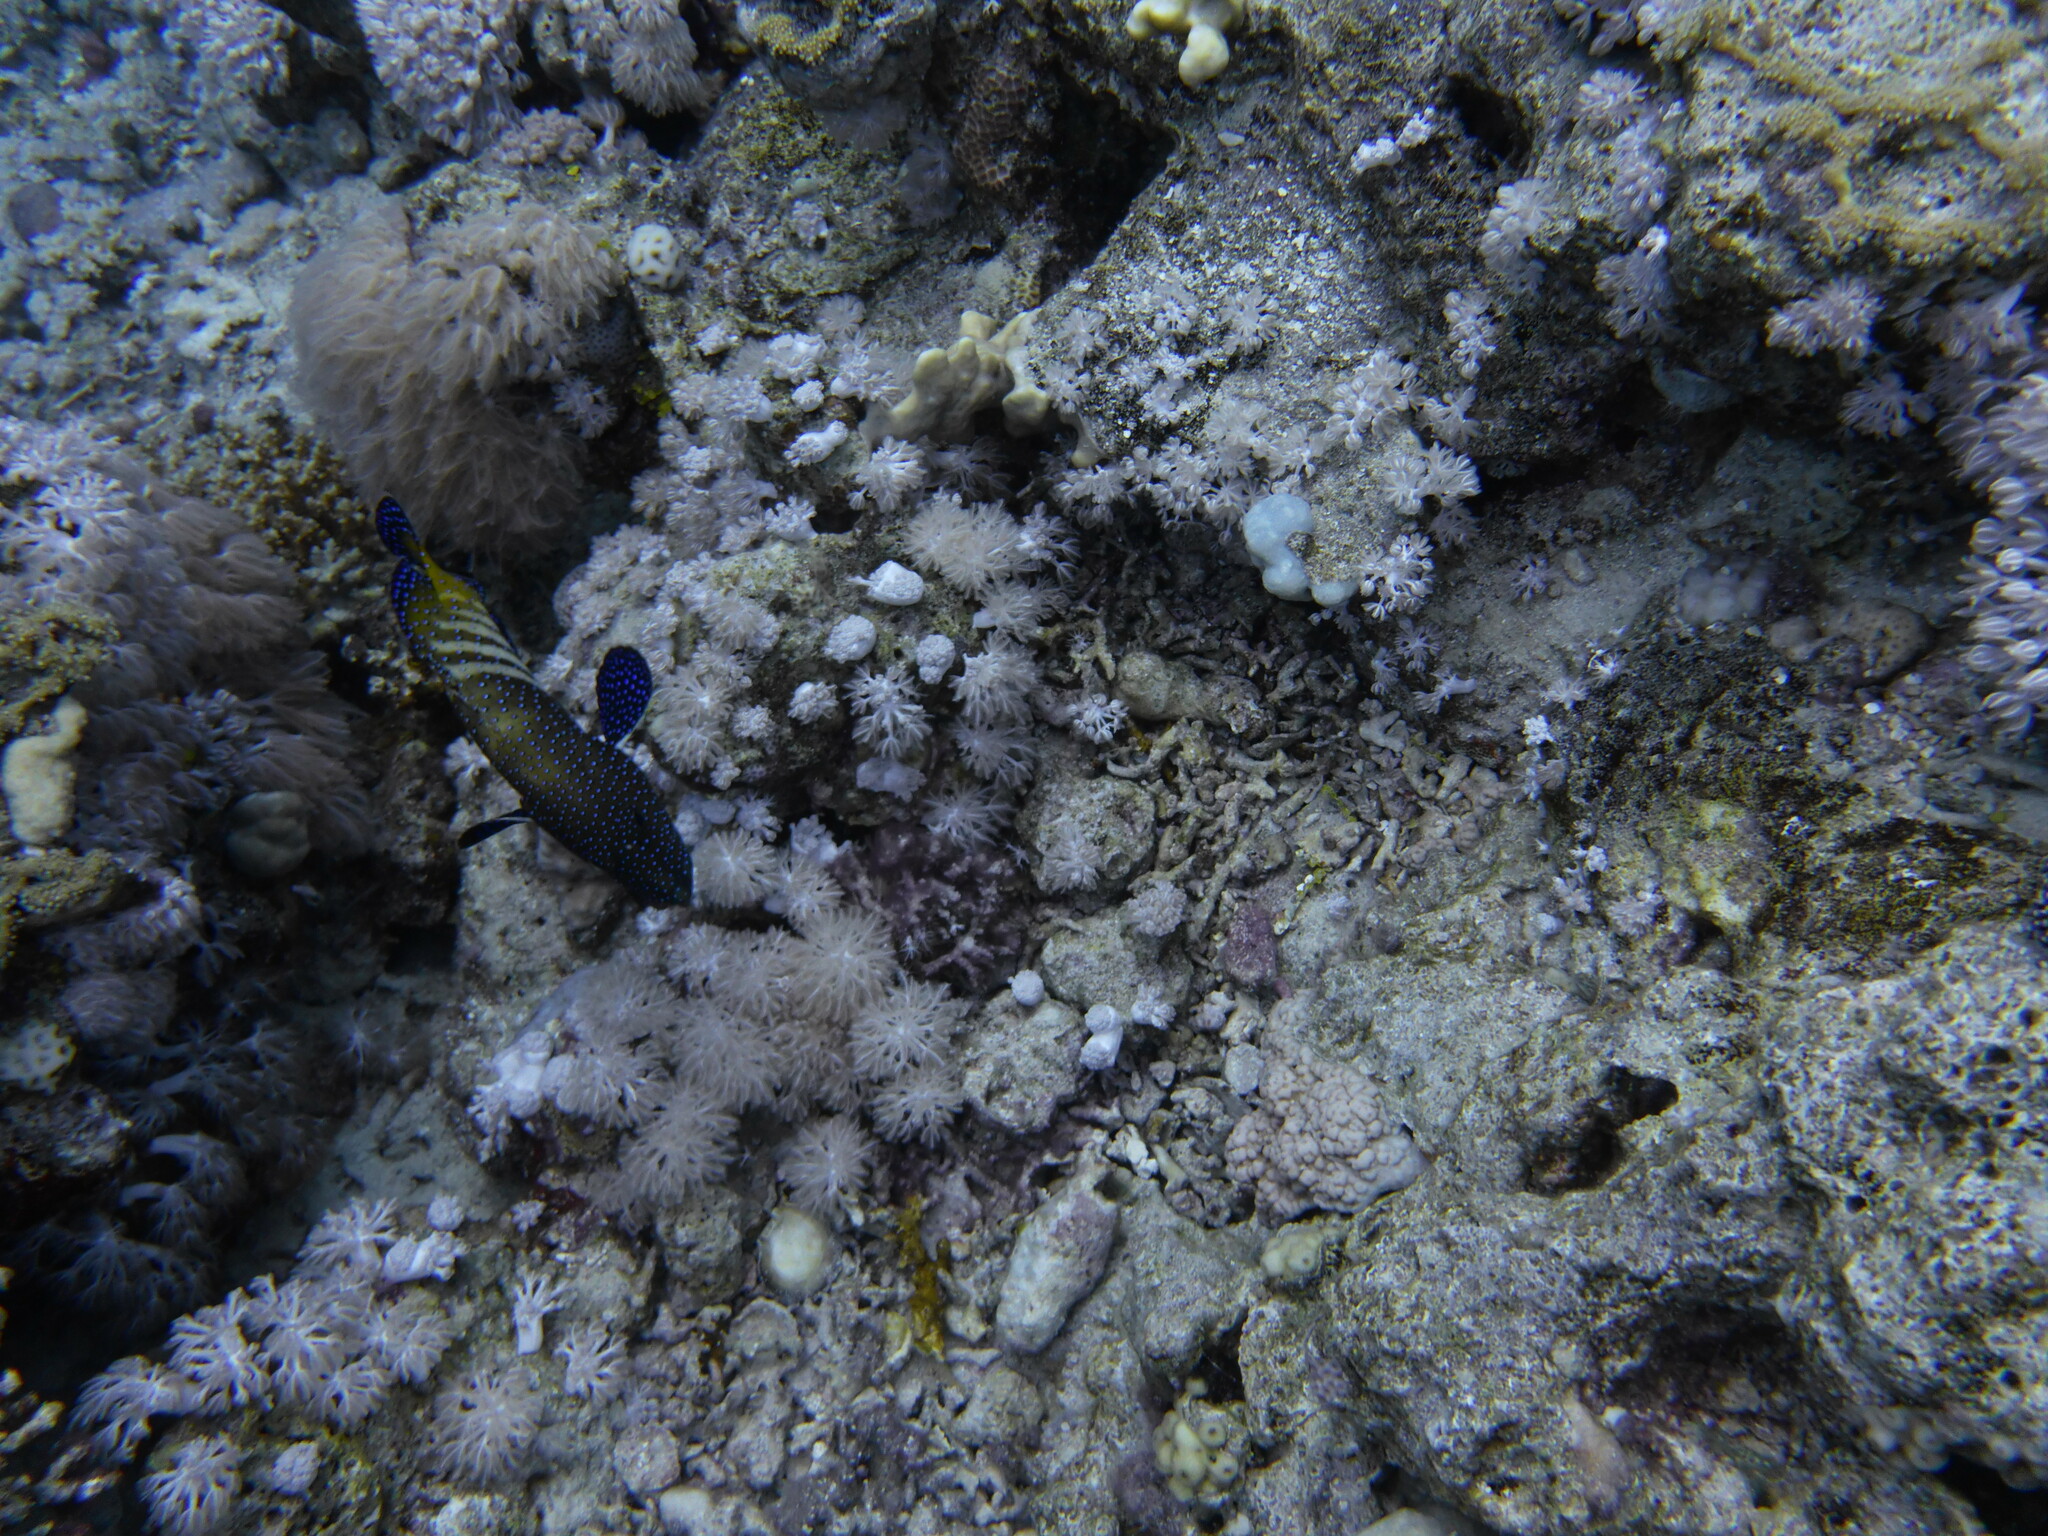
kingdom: Animalia
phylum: Chordata
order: Perciformes
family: Serranidae
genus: Cephalopholis
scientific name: Cephalopholis argus
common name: Peacock grouper
